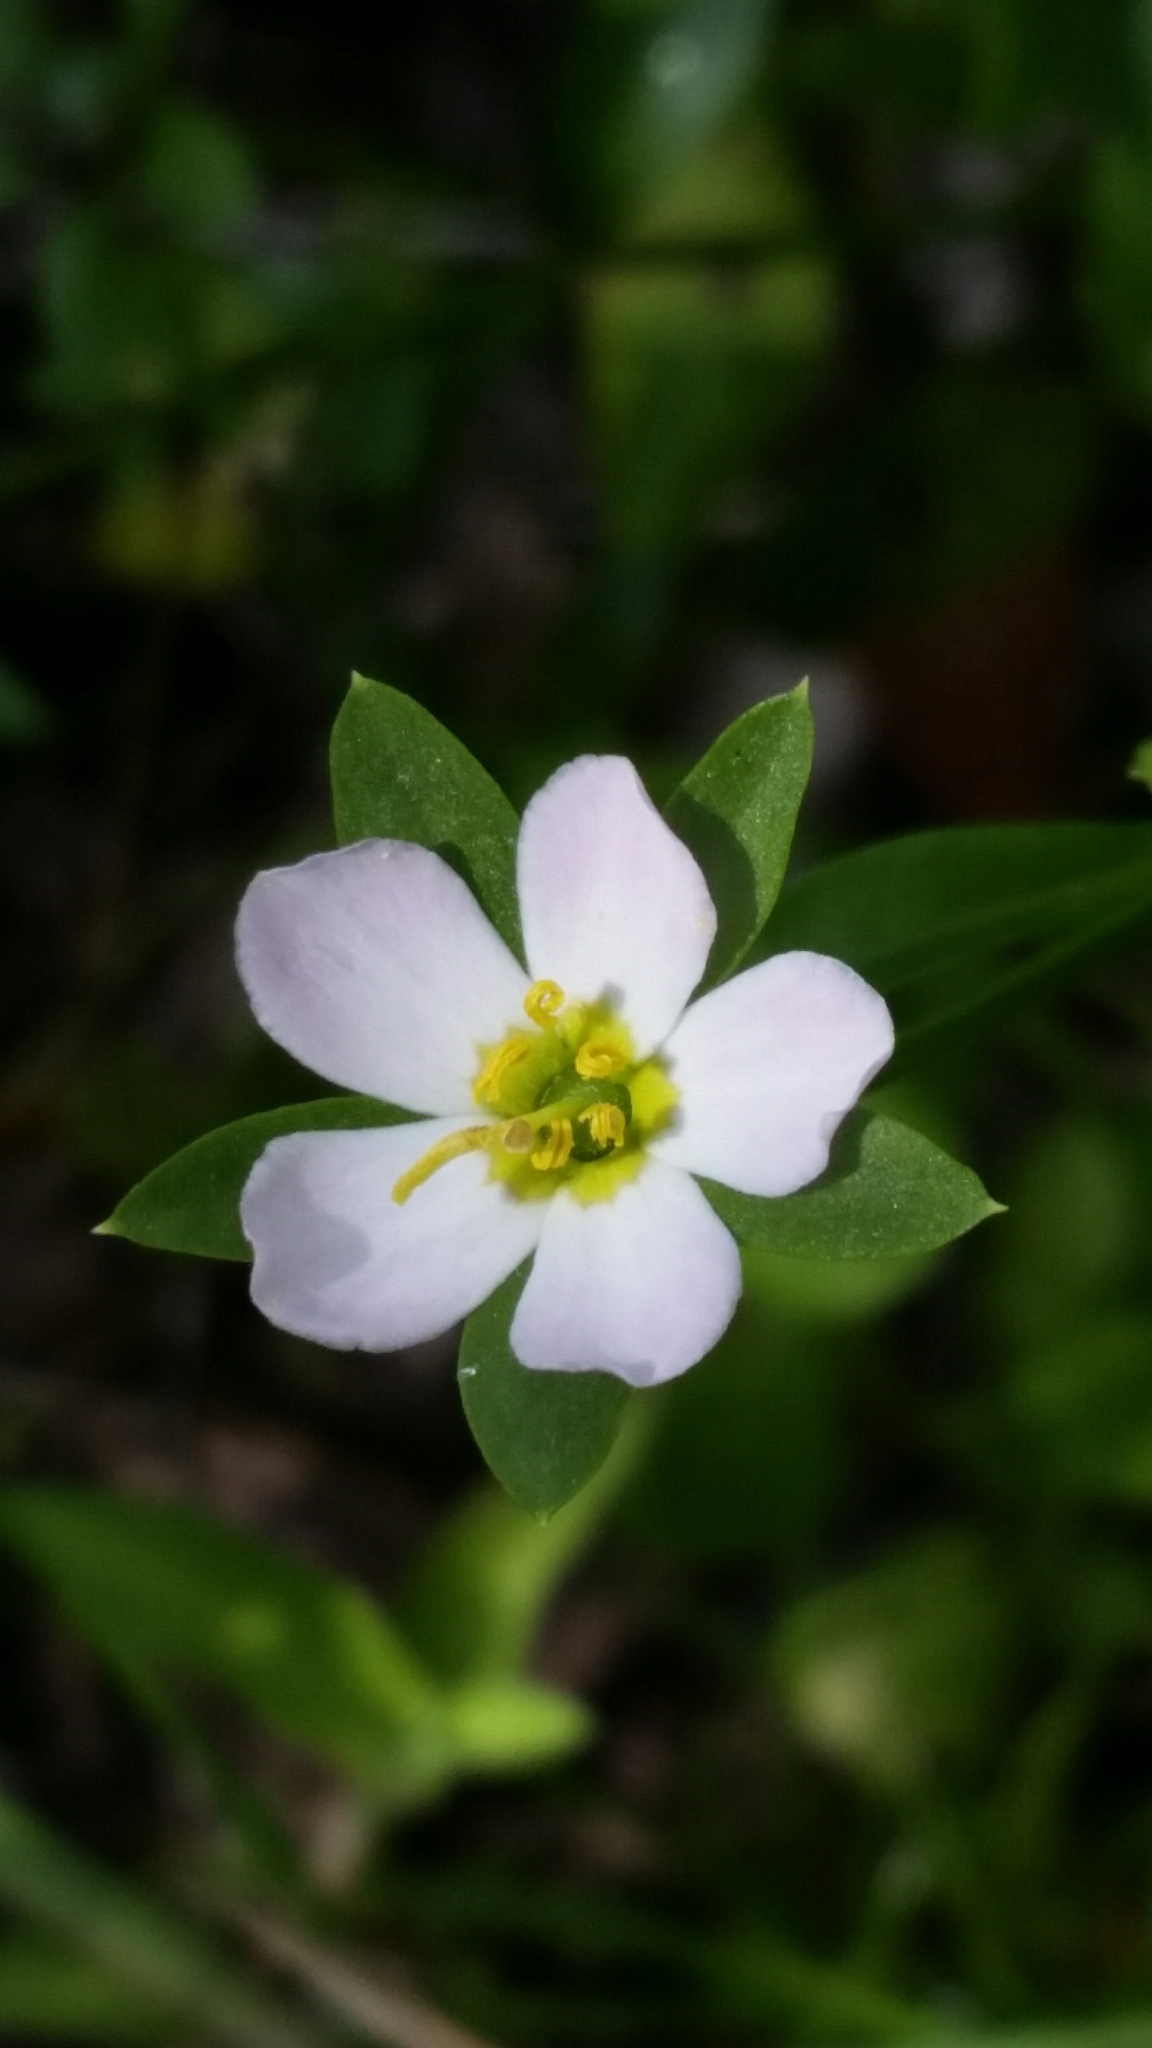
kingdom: Plantae
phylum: Tracheophyta
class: Magnoliopsida
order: Gentianales
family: Gentianaceae
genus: Sabatia
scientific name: Sabatia calycina
